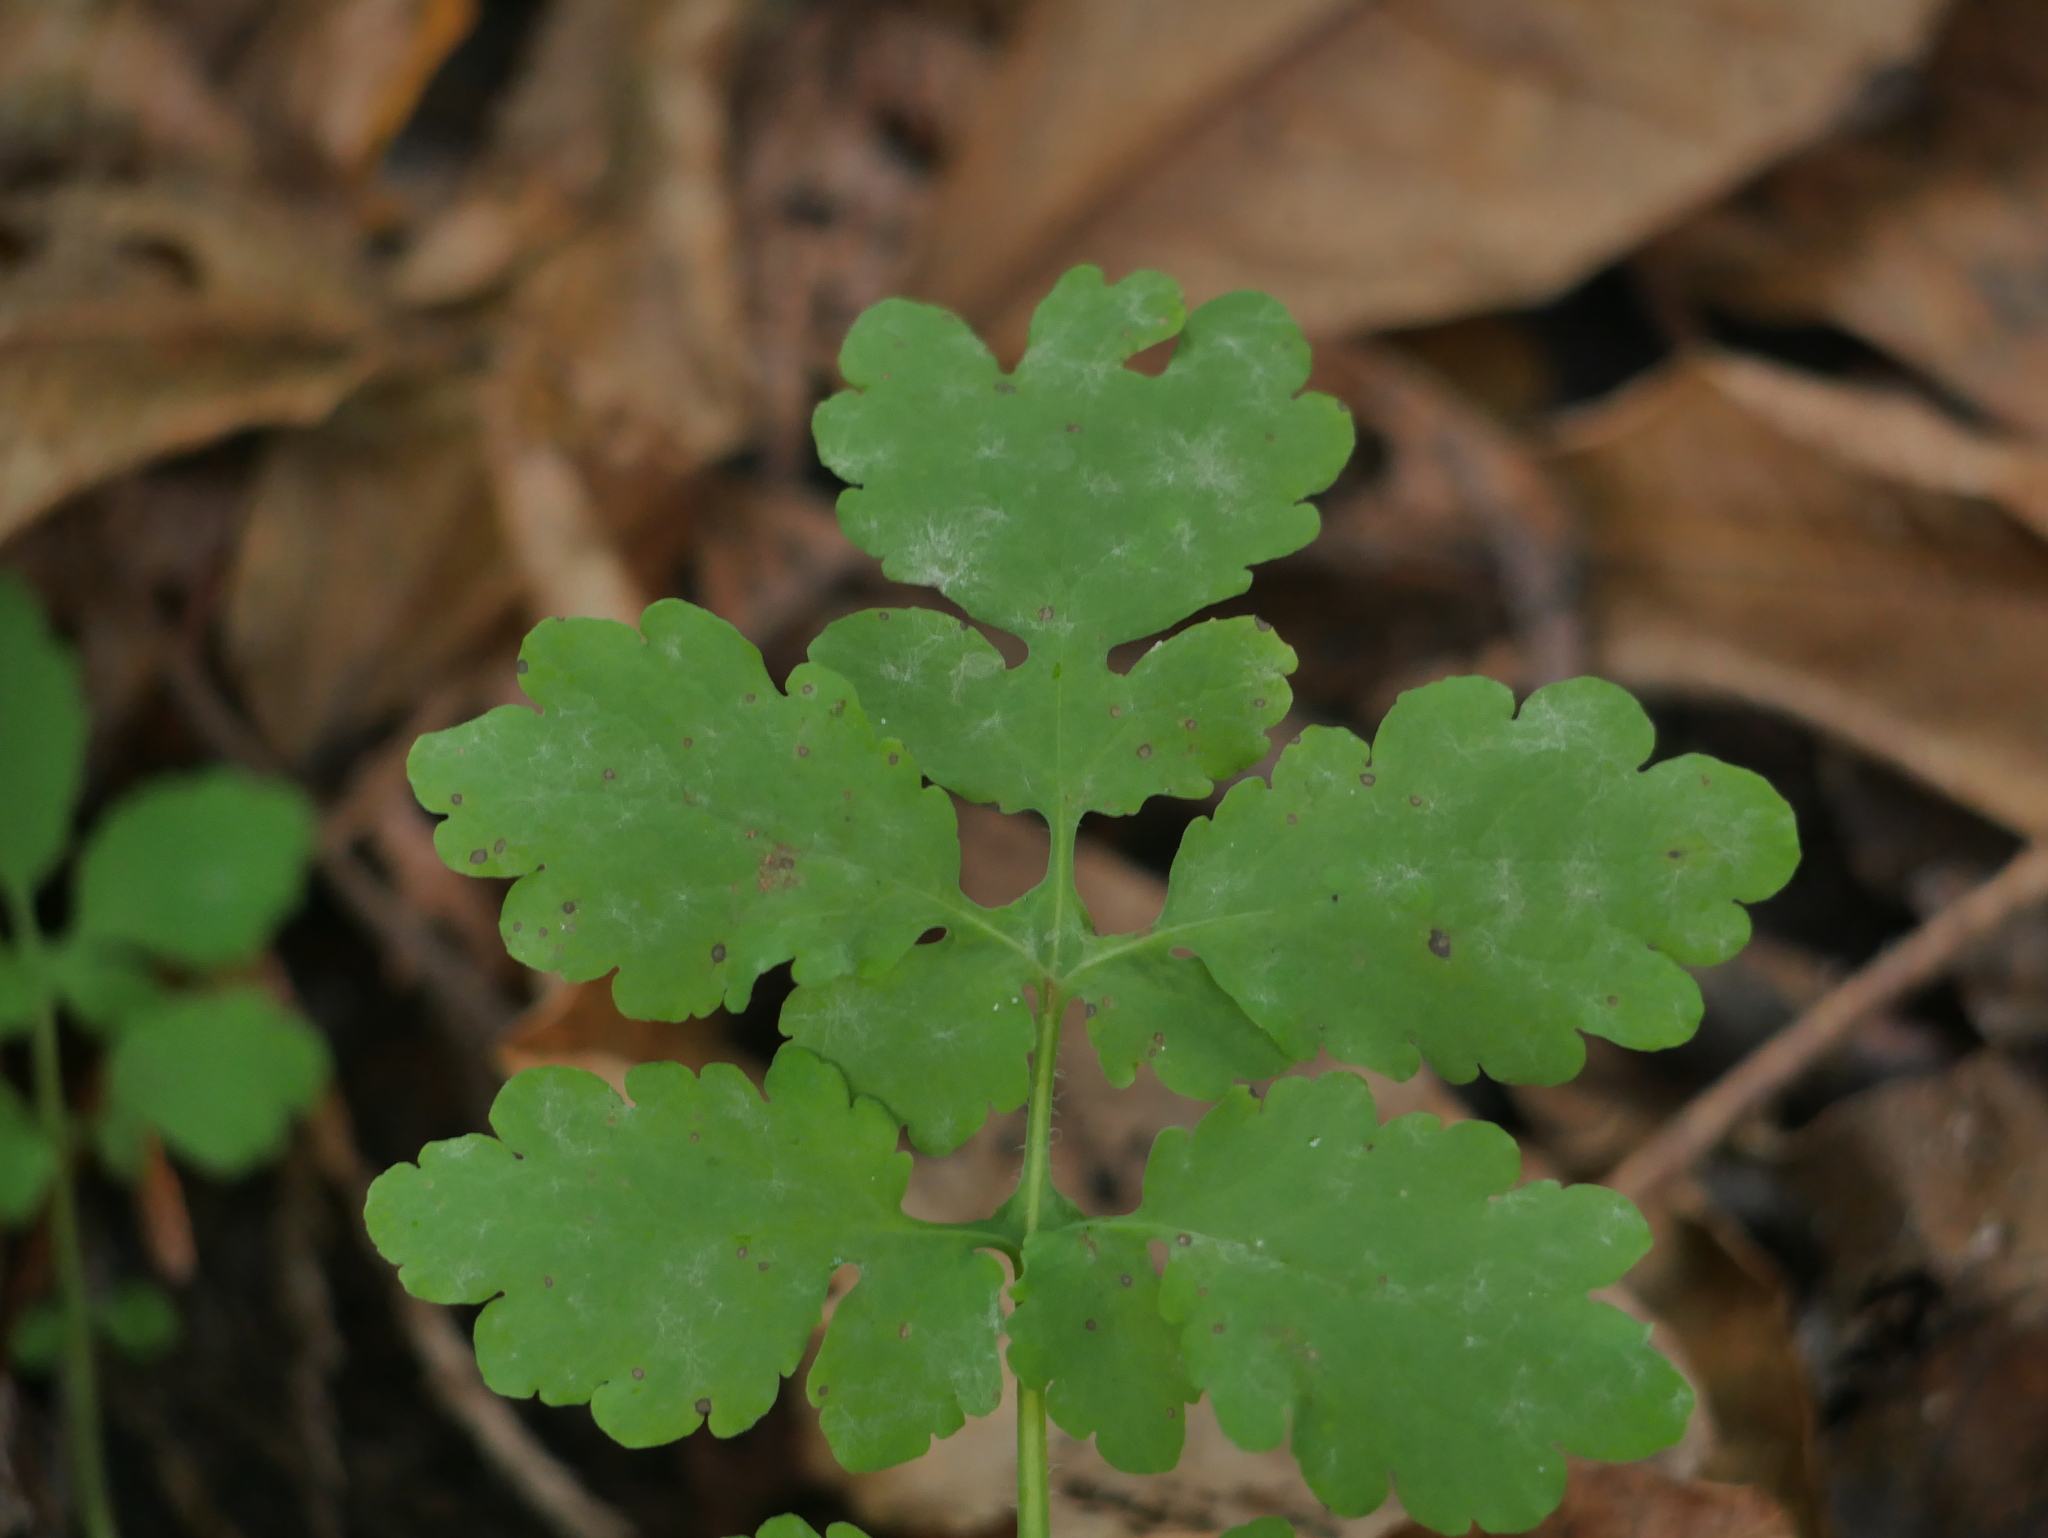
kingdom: Plantae
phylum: Tracheophyta
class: Magnoliopsida
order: Ranunculales
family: Papaveraceae
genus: Chelidonium
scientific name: Chelidonium majus
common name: Greater celandine
